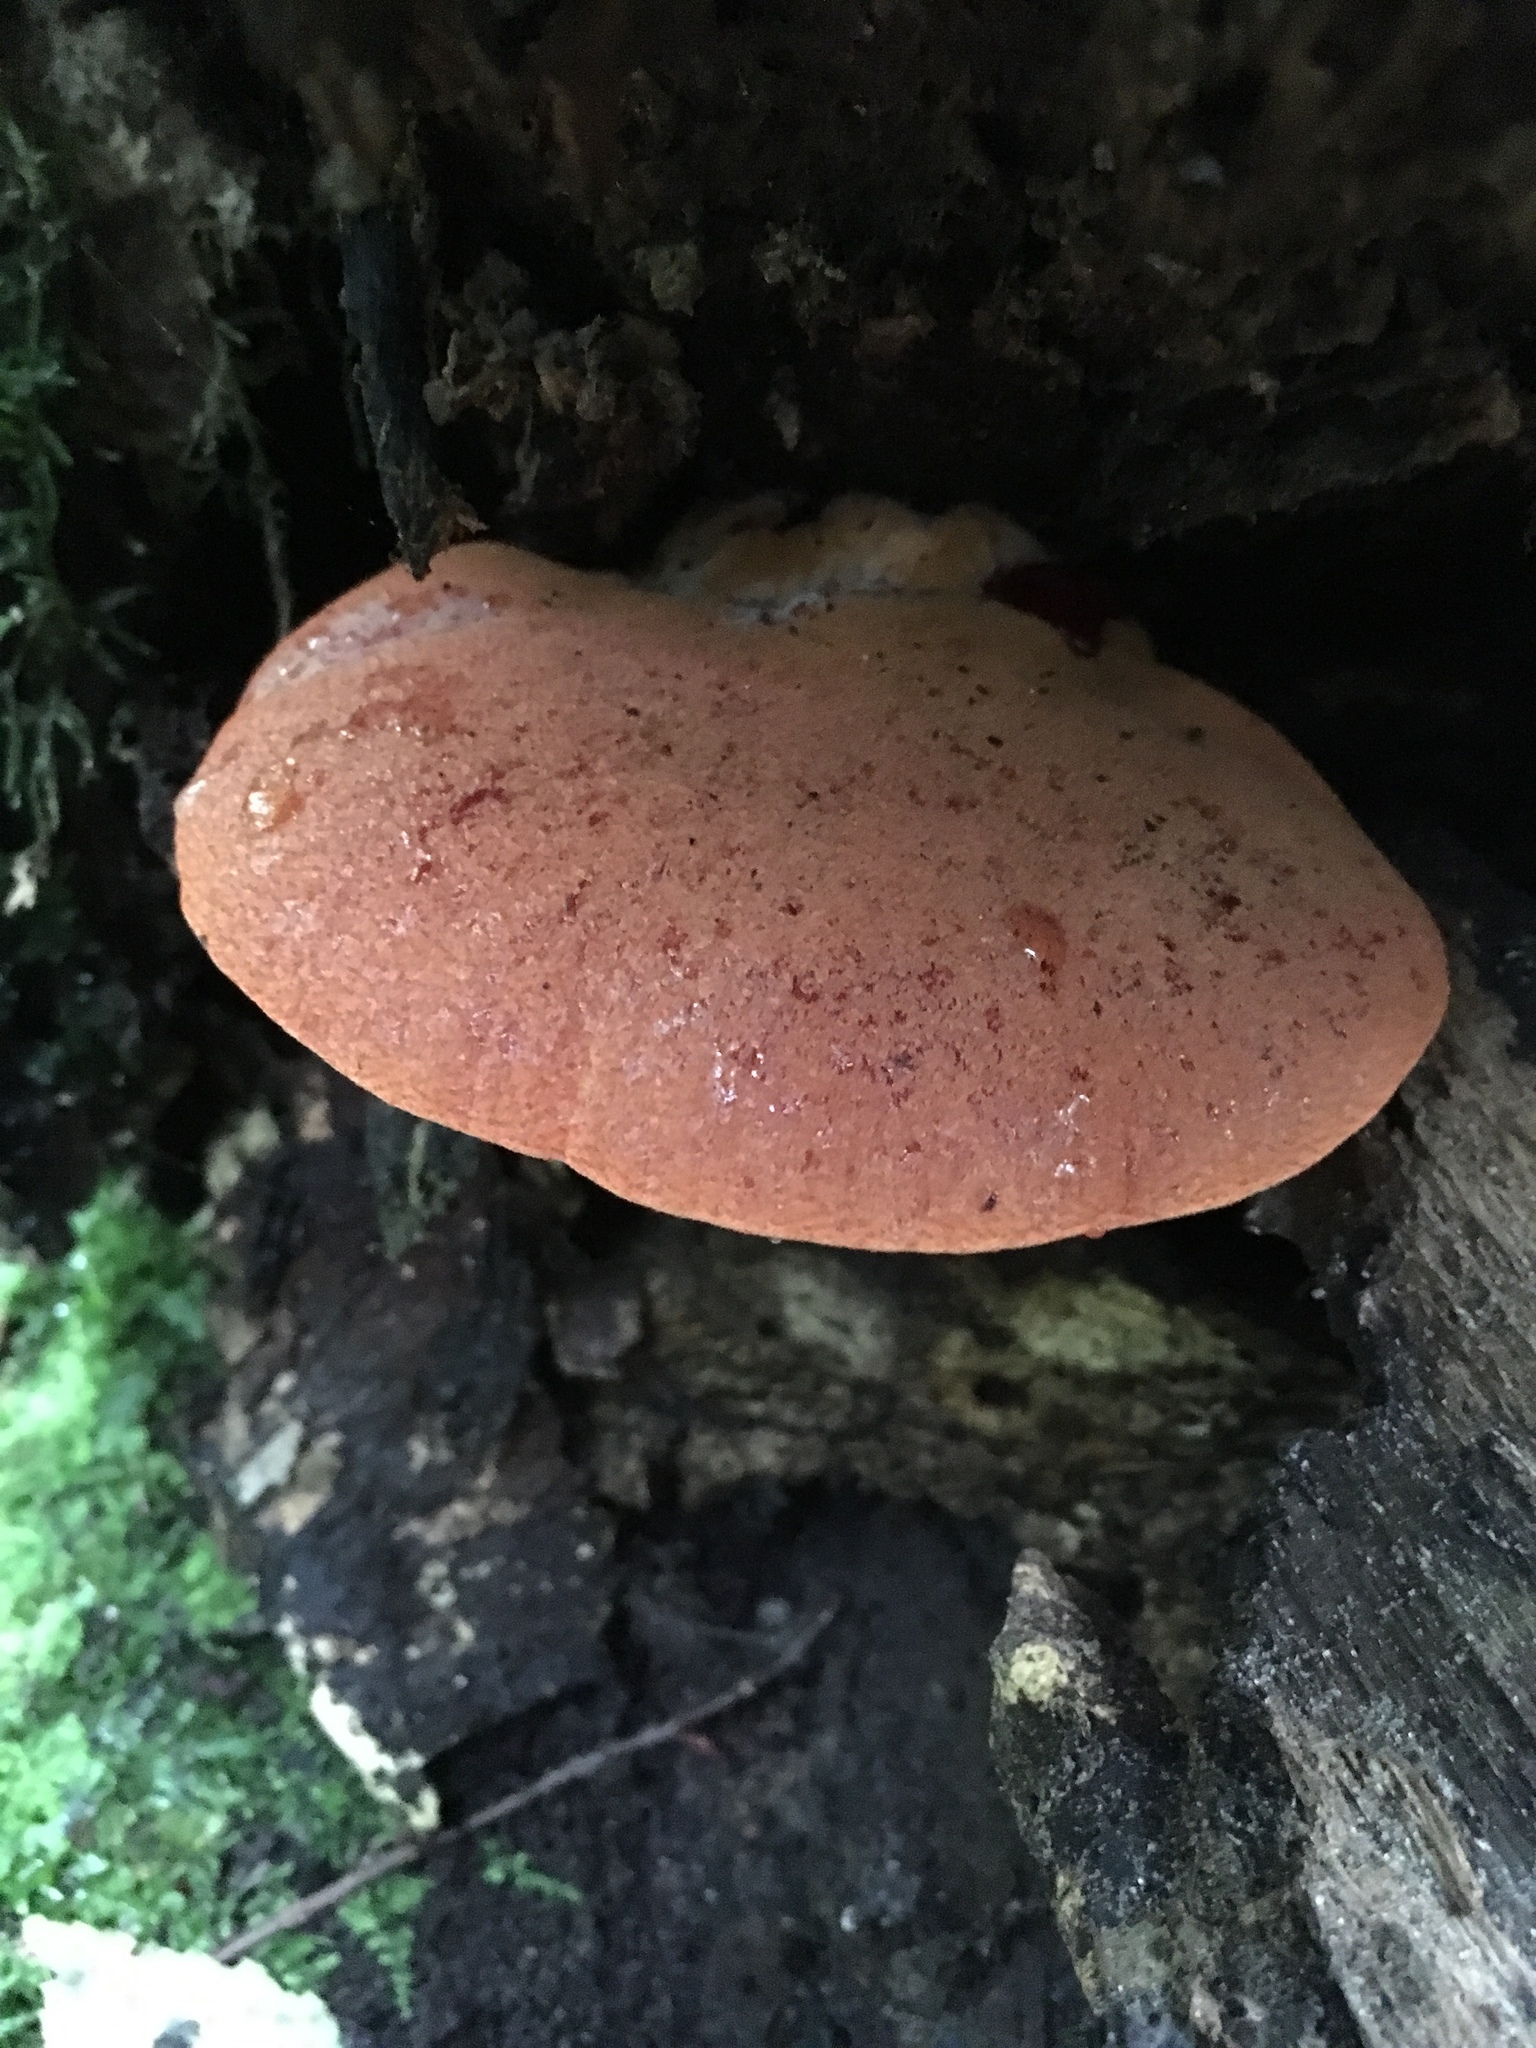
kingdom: Fungi
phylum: Basidiomycota
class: Agaricomycetes
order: Agaricales
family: Fistulinaceae
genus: Fistulina
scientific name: Fistulina hepatica
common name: Beef-steak fungus
